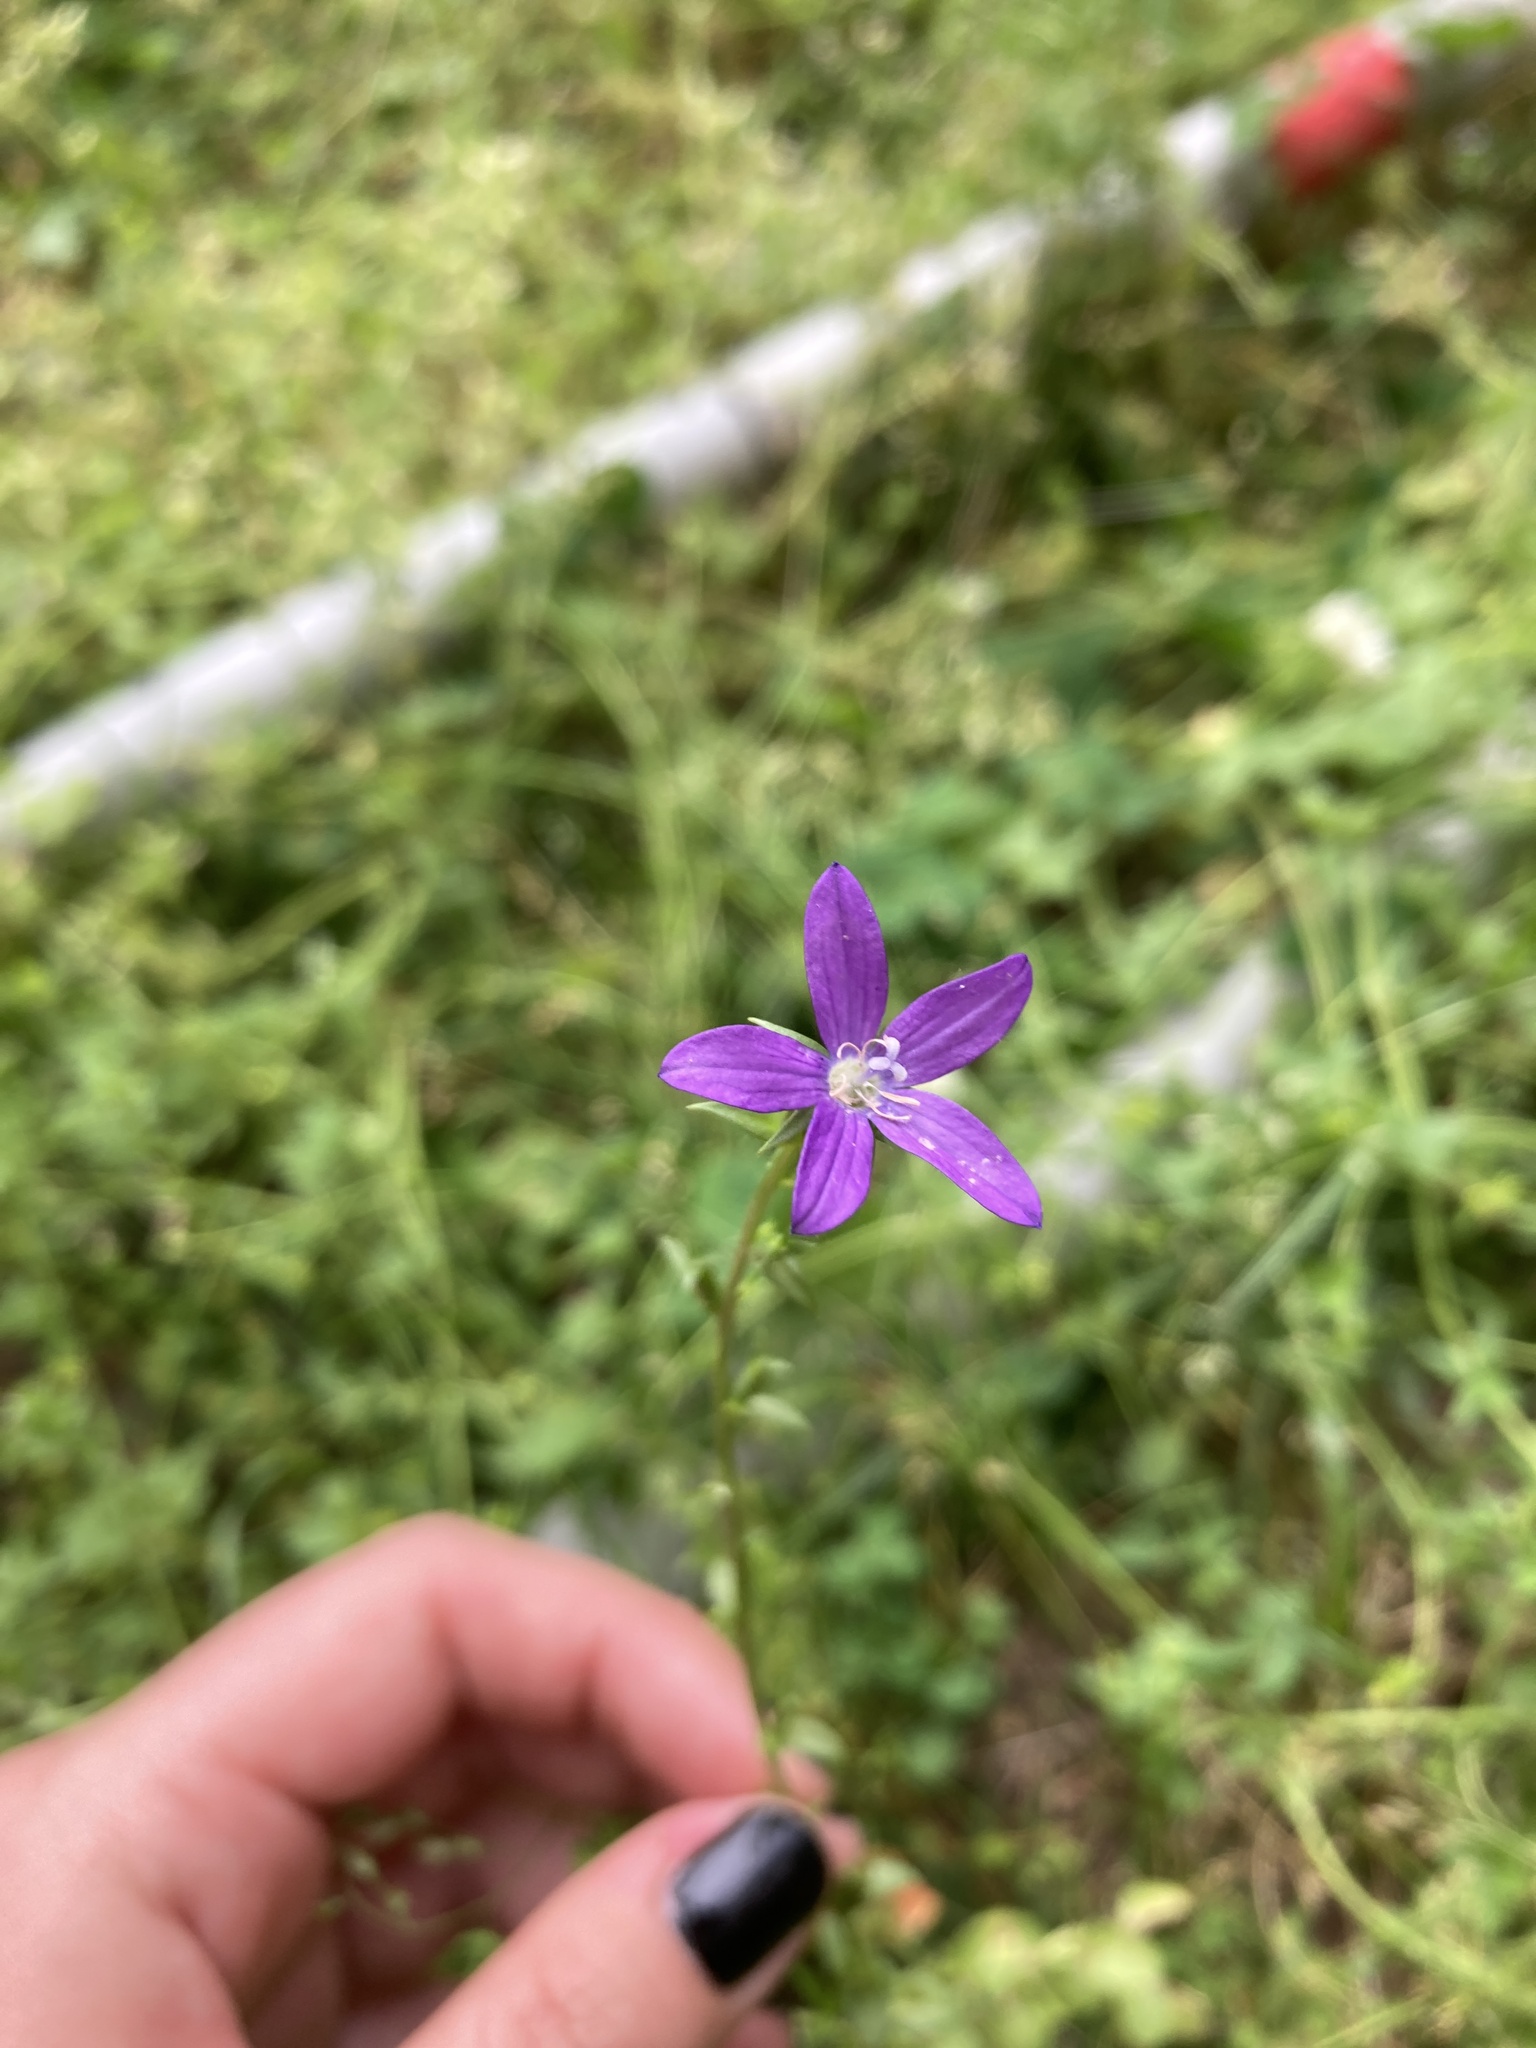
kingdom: Plantae
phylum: Tracheophyta
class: Magnoliopsida
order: Asterales
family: Campanulaceae
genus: Triodanis
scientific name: Triodanis biflora
